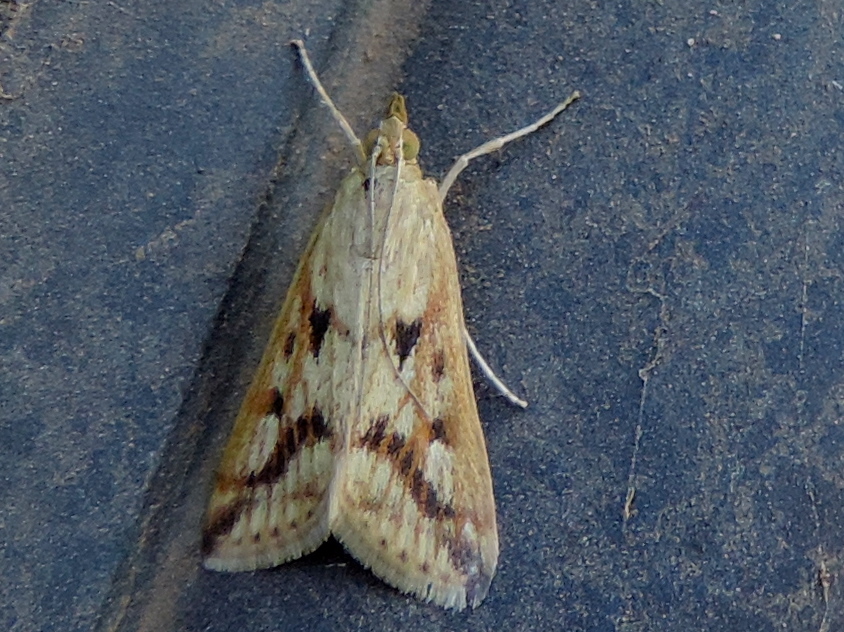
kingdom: Animalia
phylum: Arthropoda
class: Insecta
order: Lepidoptera
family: Crambidae
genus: Achyra
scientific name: Achyra bifidalis
